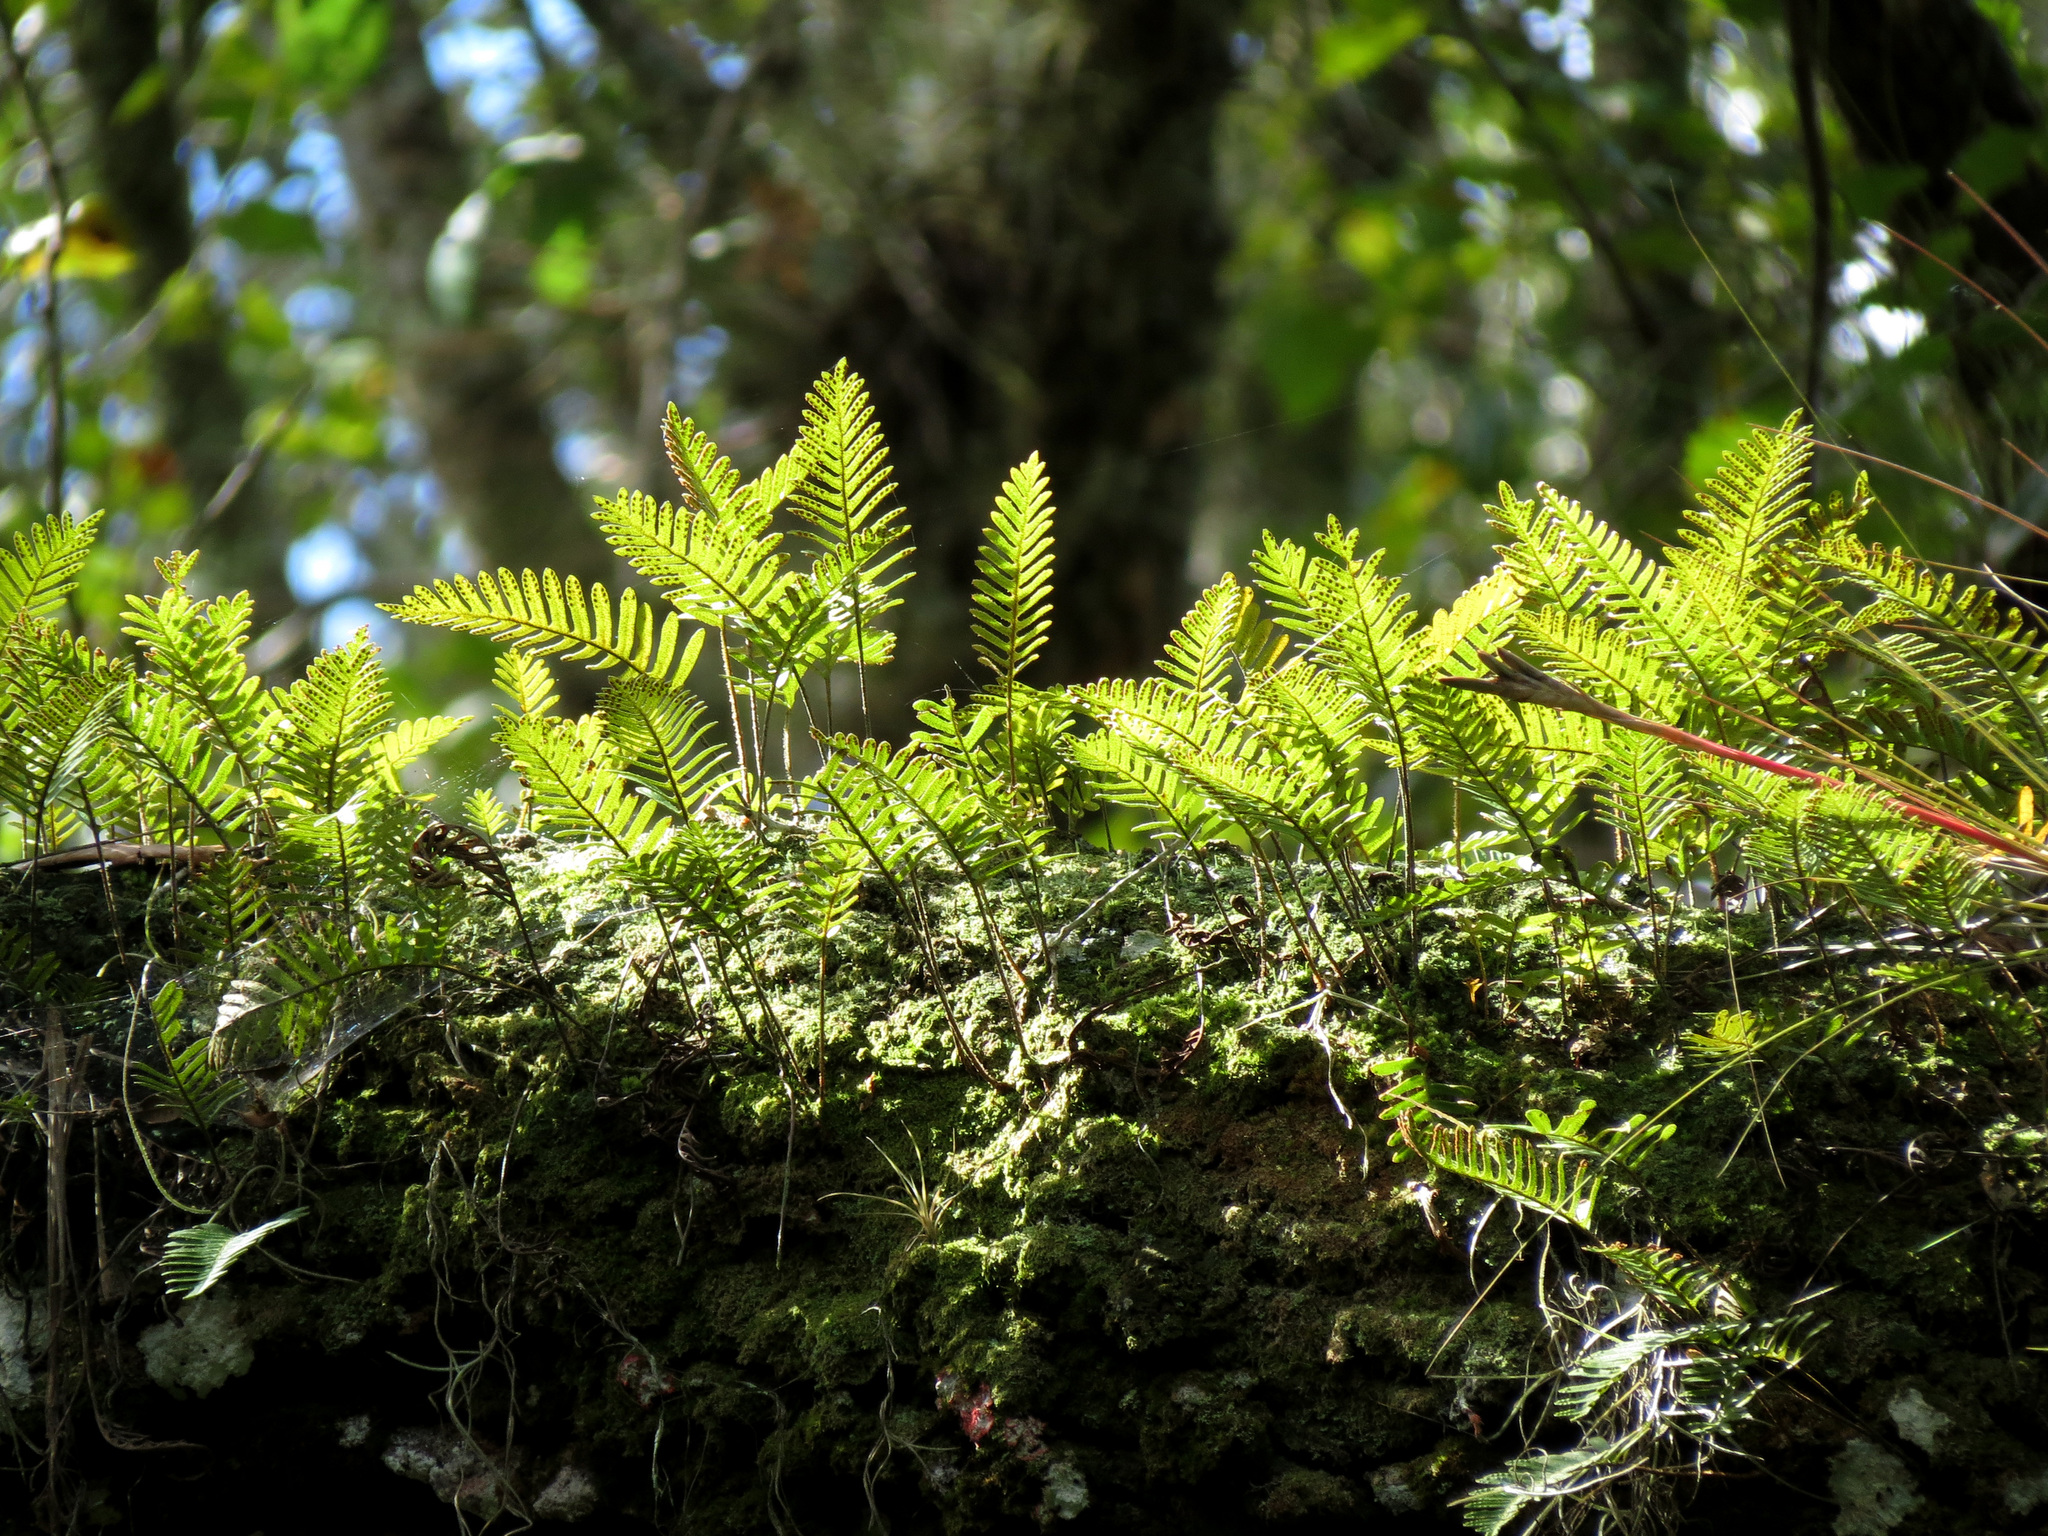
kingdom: Plantae
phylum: Tracheophyta
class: Polypodiopsida
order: Polypodiales
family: Polypodiaceae
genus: Pleopeltis
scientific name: Pleopeltis michauxiana
